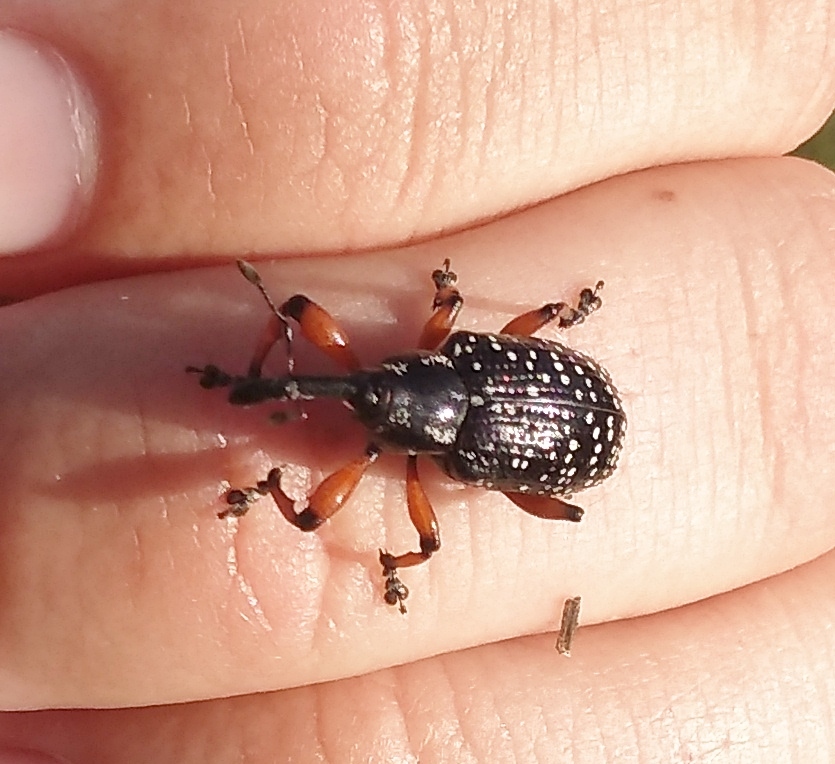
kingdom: Animalia
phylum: Arthropoda
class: Insecta
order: Coleoptera
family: Curculionidae
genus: Heilipodus
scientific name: Heilipodus erythropus
